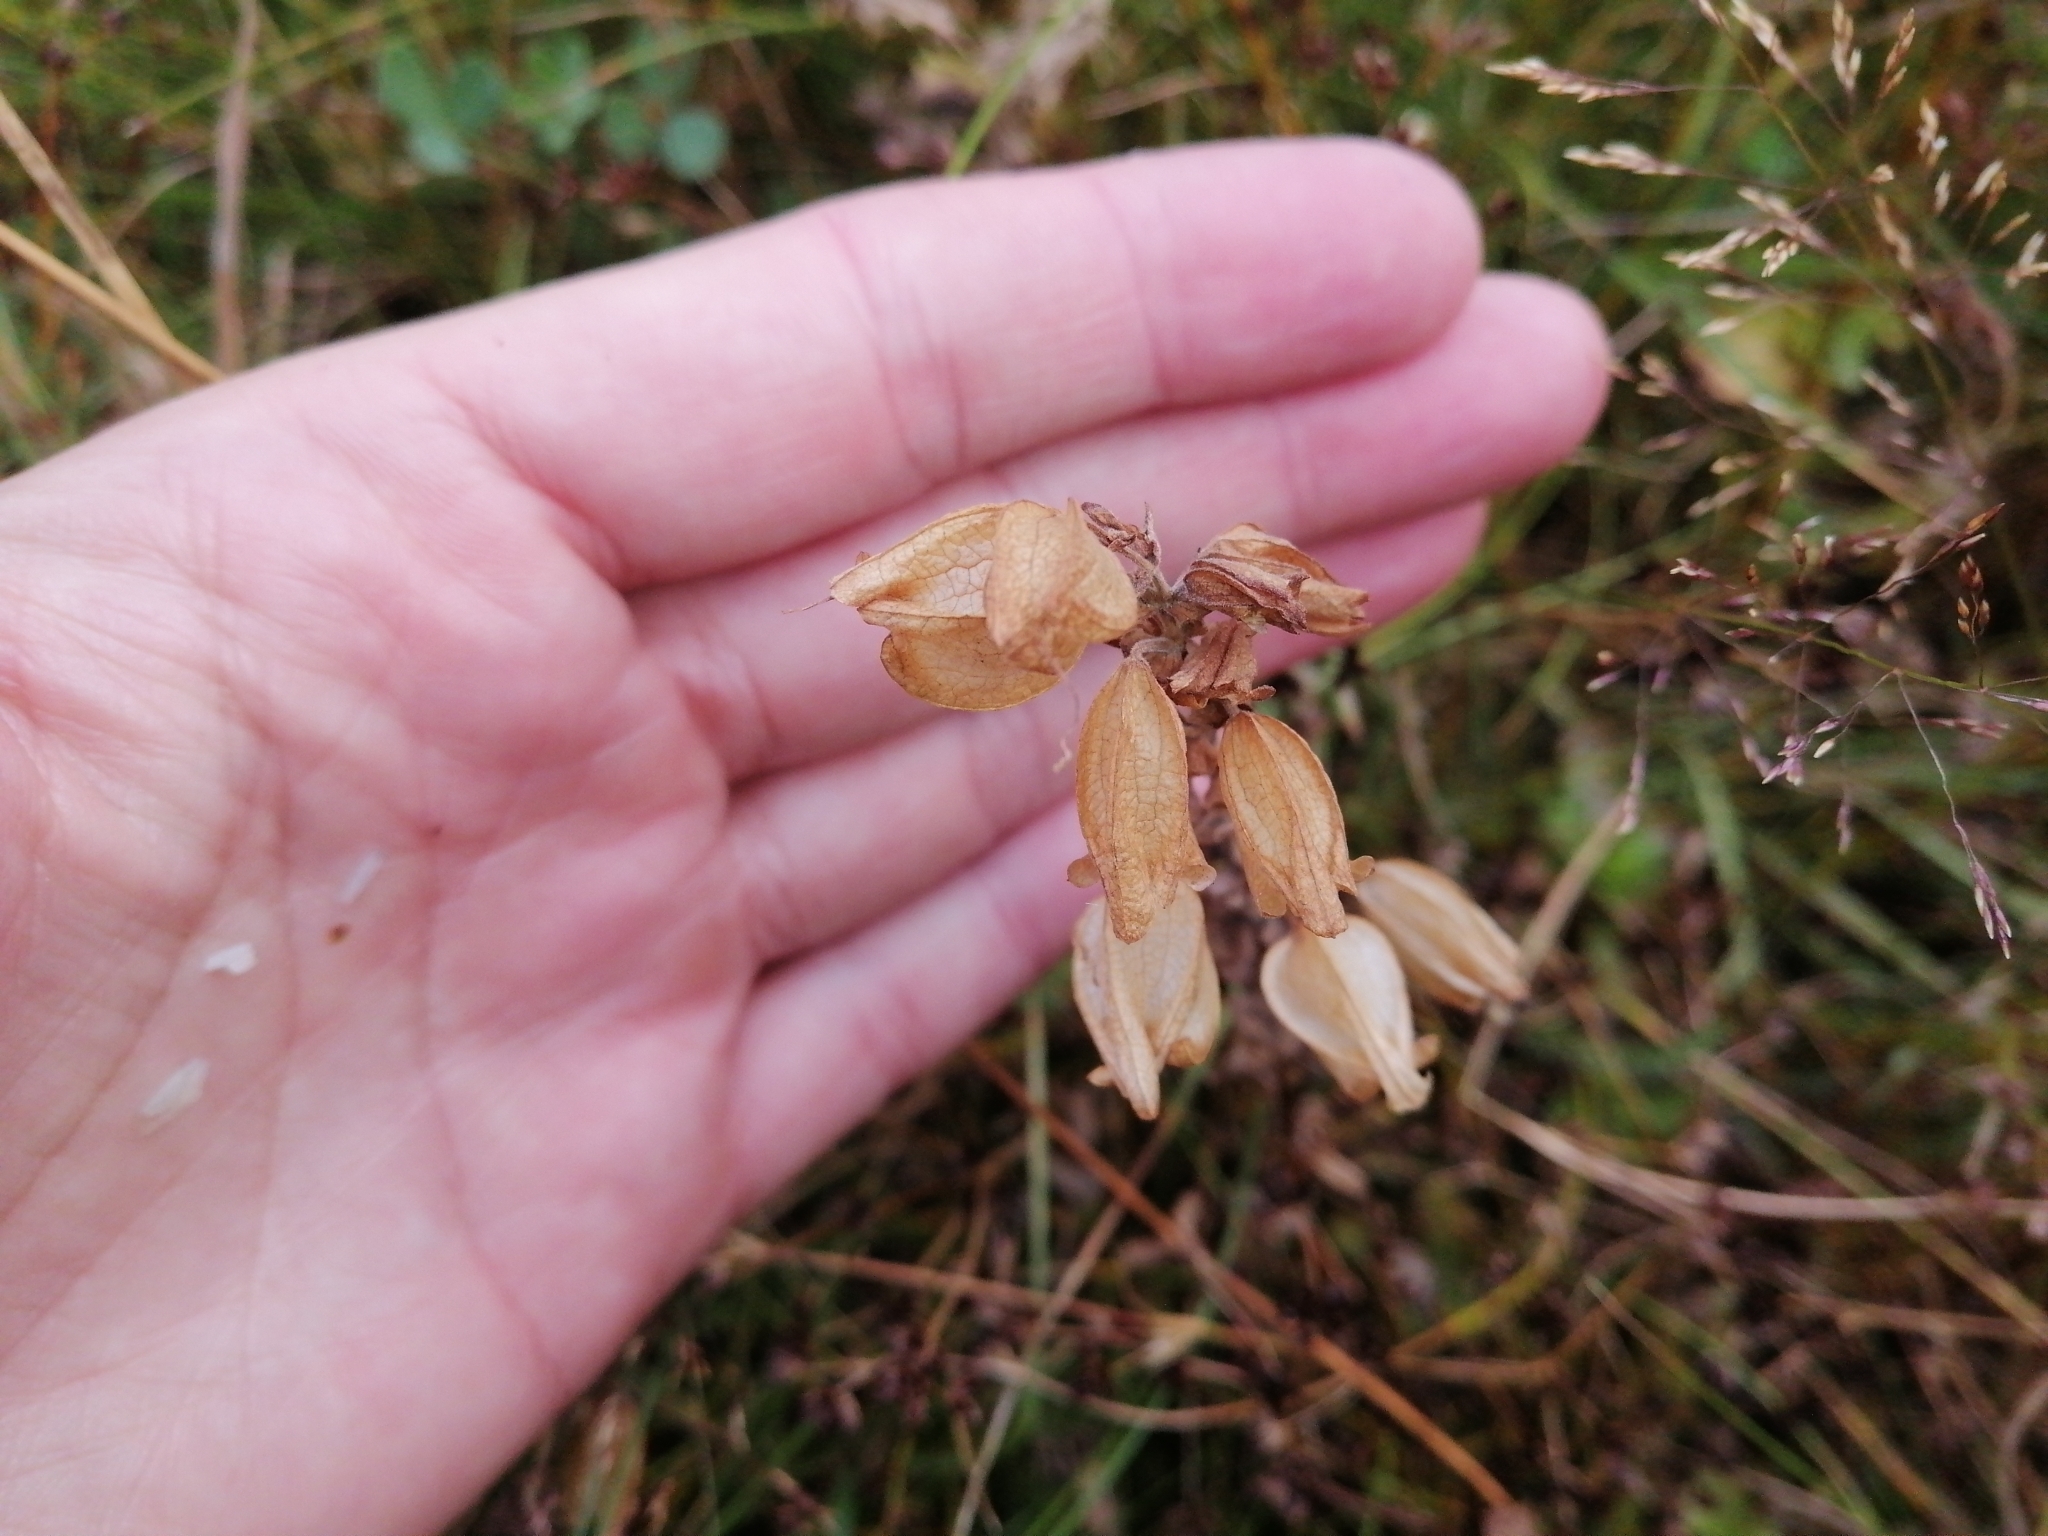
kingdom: Plantae
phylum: Tracheophyta
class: Magnoliopsida
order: Lamiales
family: Phrymaceae
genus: Erythranthe
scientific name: Erythranthe guttata
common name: Monkeyflower
